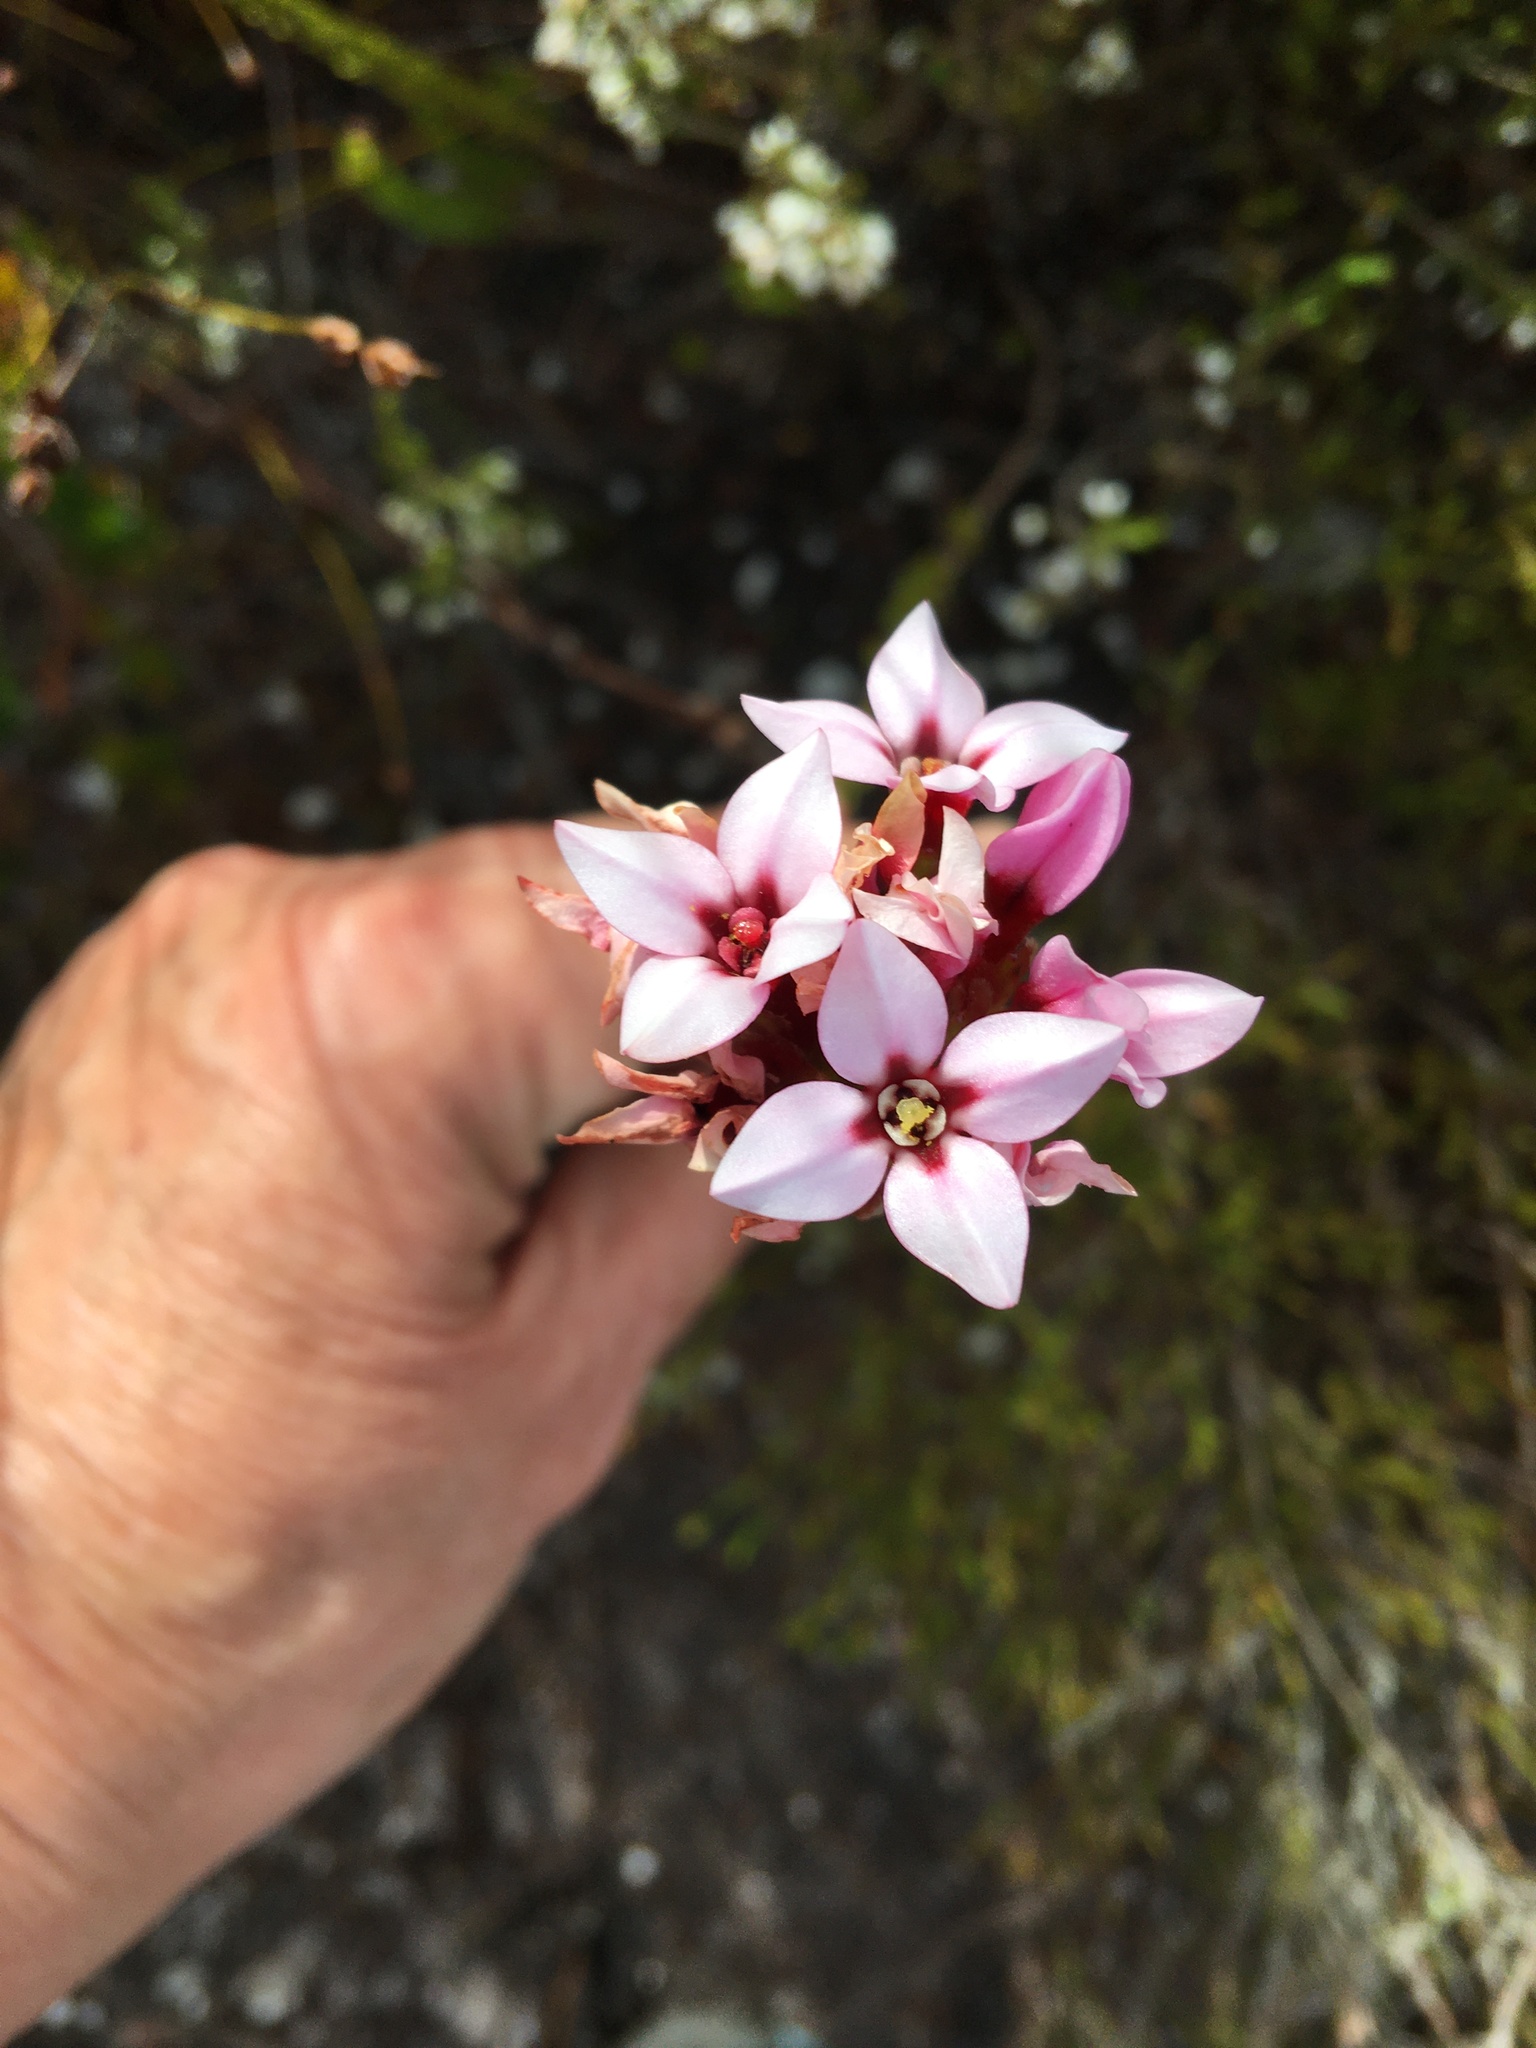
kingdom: Plantae
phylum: Tracheophyta
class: Magnoliopsida
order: Myrtales
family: Penaeaceae
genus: Sonderothamnus
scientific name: Sonderothamnus speciosus
